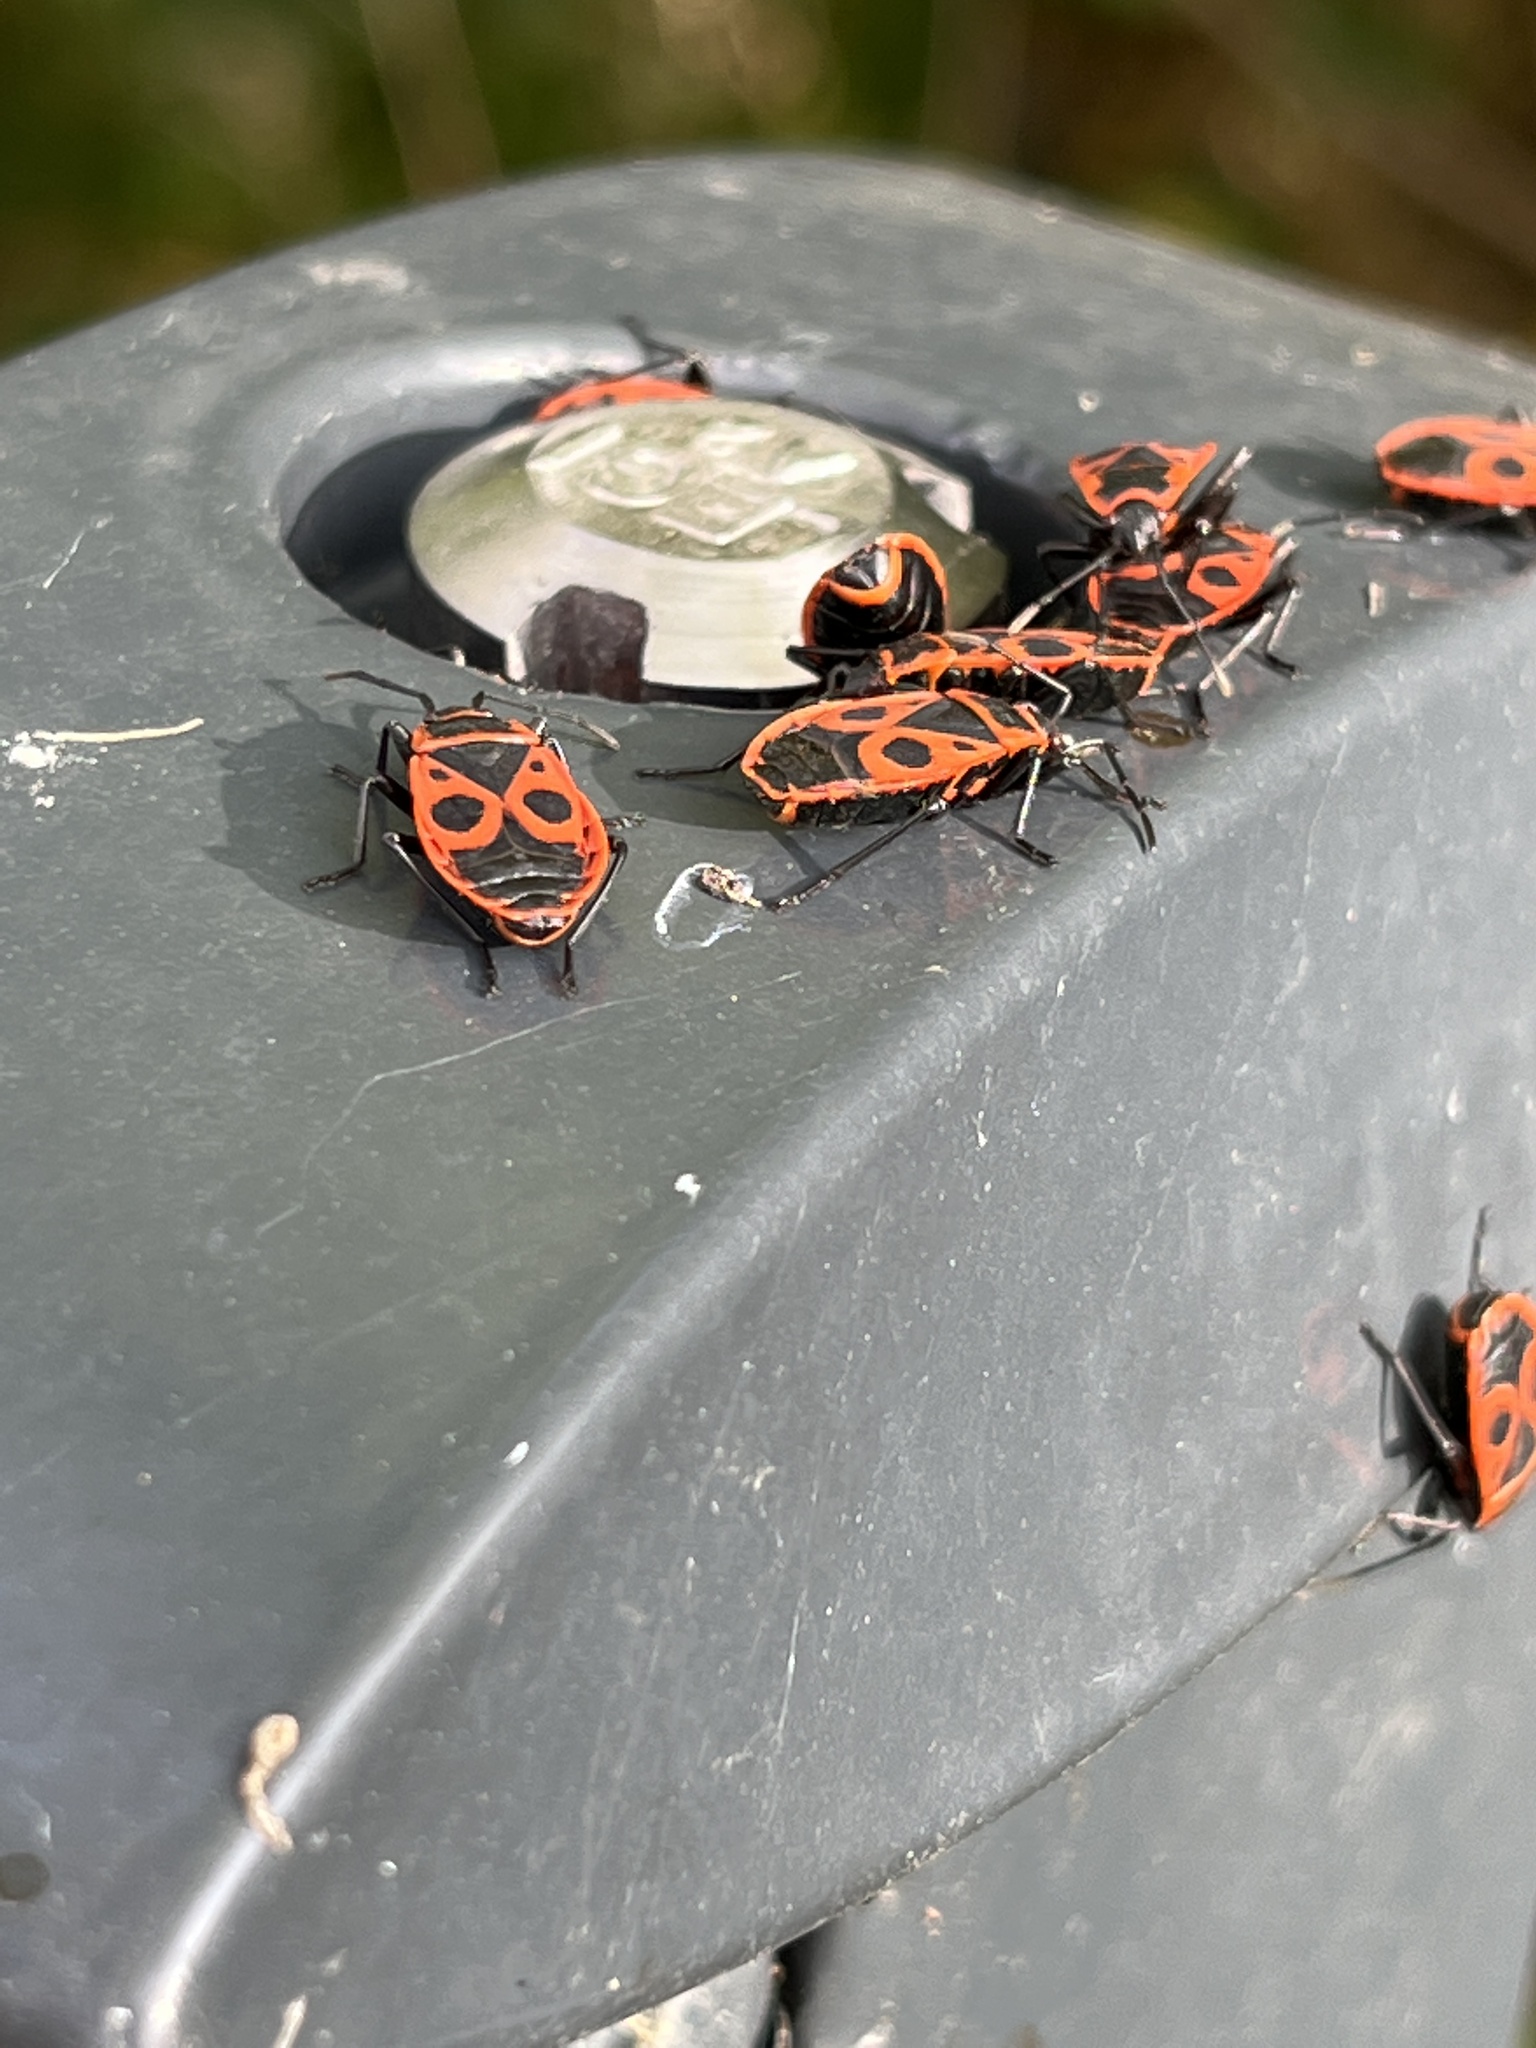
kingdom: Animalia
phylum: Arthropoda
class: Insecta
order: Hemiptera
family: Pyrrhocoridae
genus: Pyrrhocoris
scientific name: Pyrrhocoris apterus
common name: Firebug
